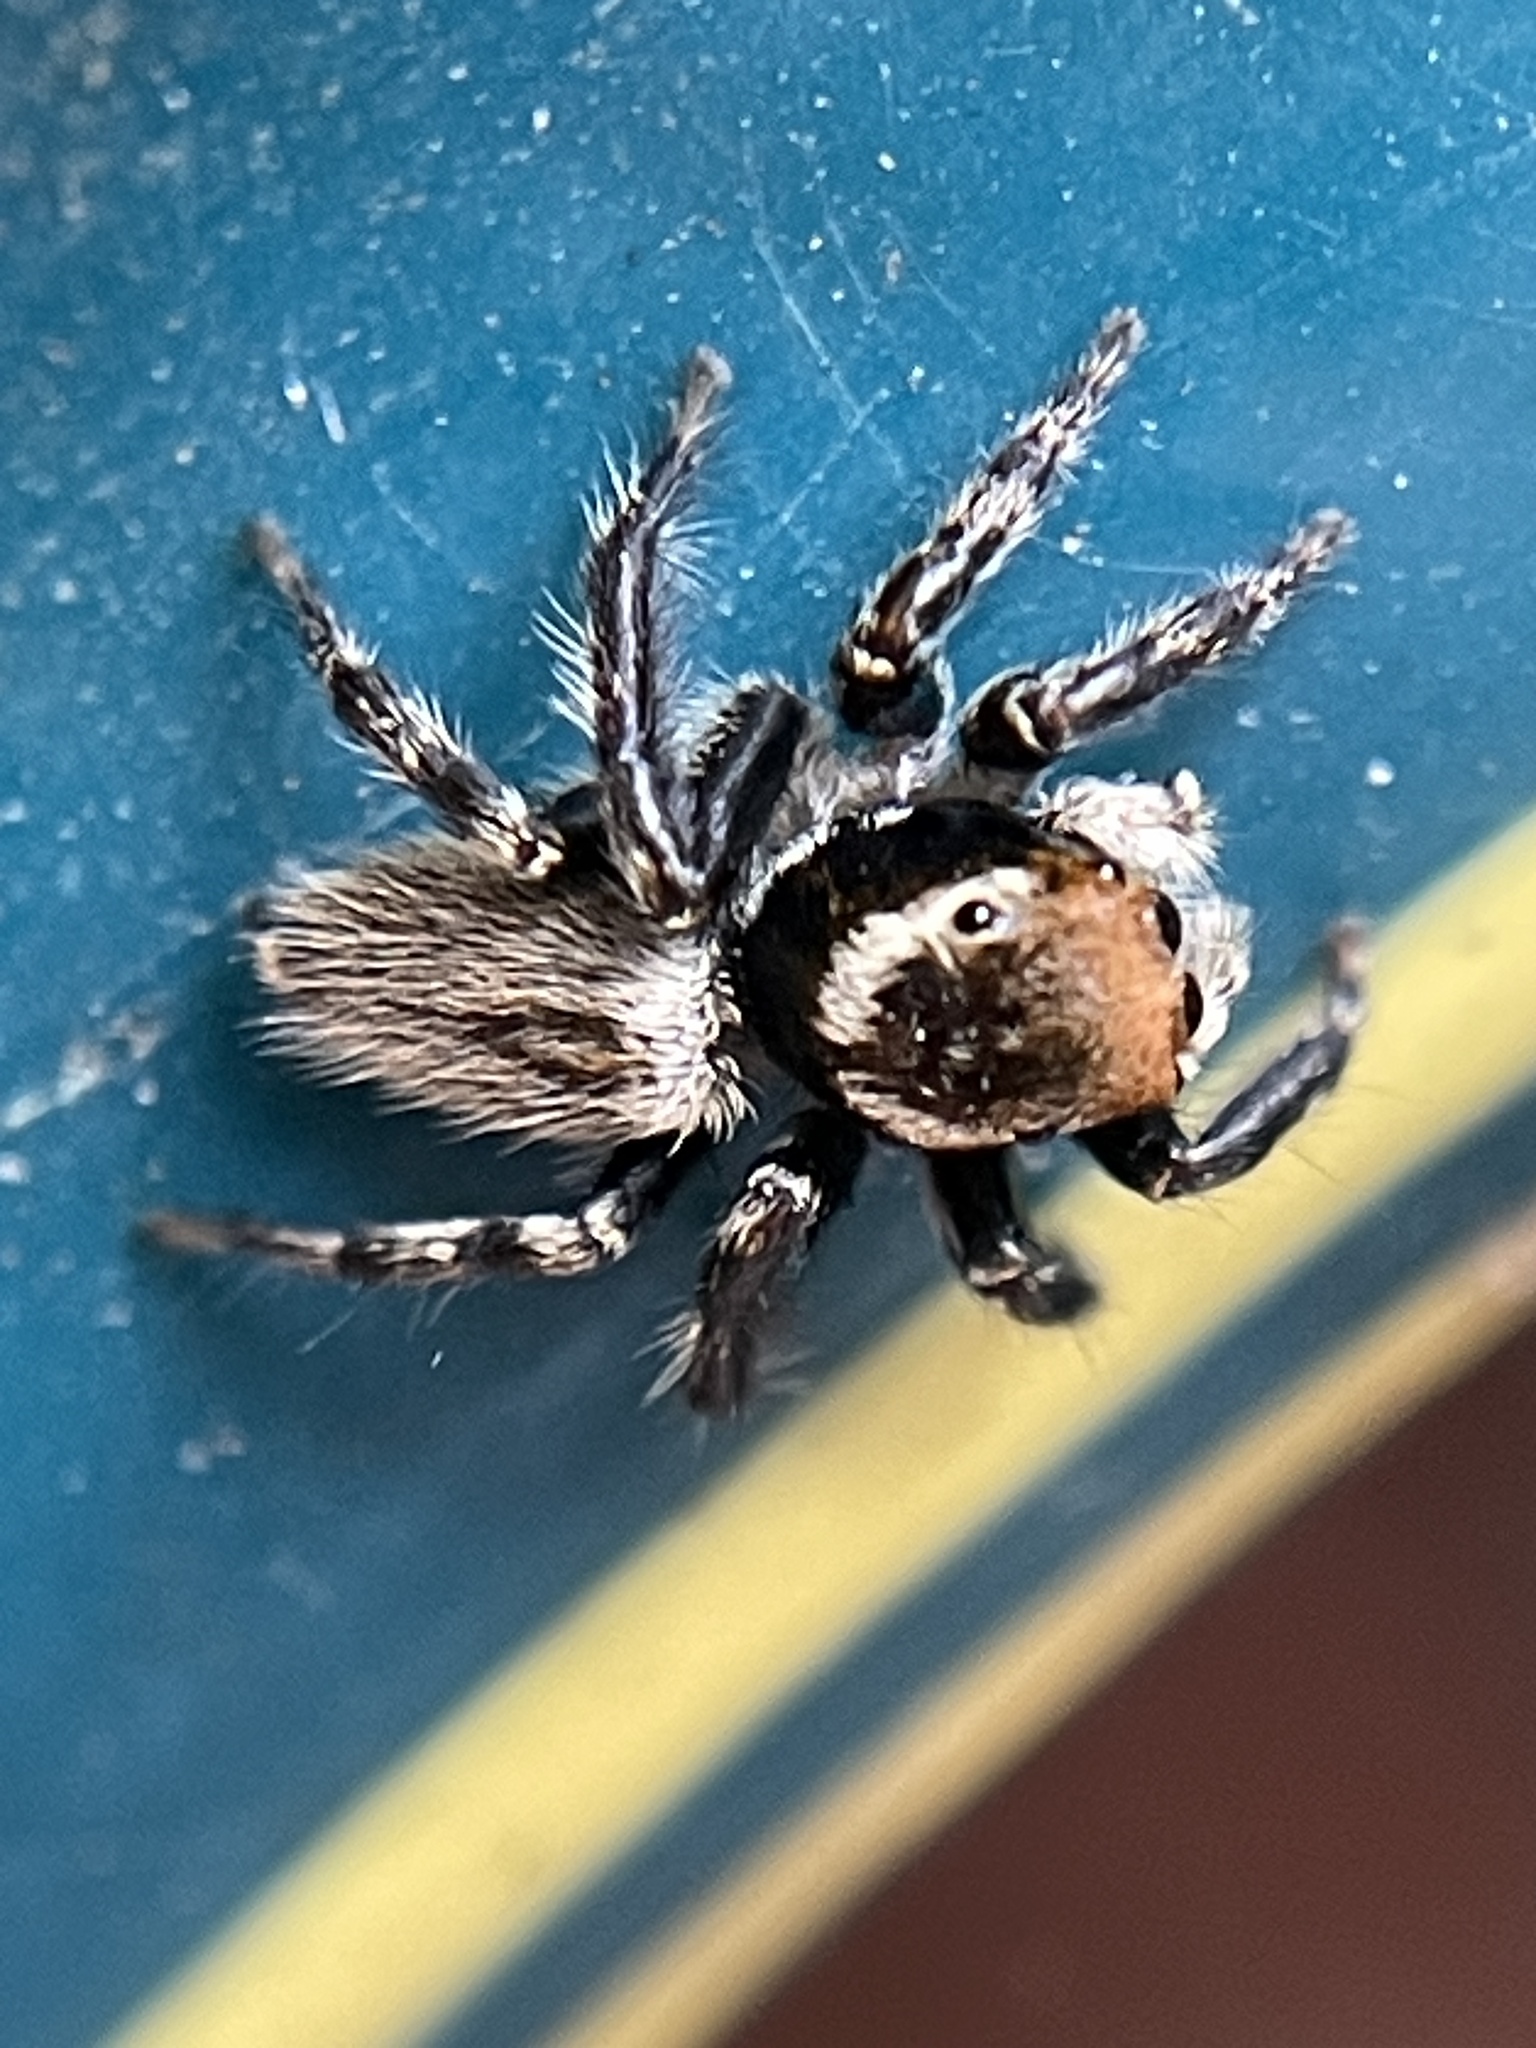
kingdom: Animalia
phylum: Arthropoda
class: Arachnida
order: Araneae
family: Salticidae
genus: Maratus
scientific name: Maratus griseus
